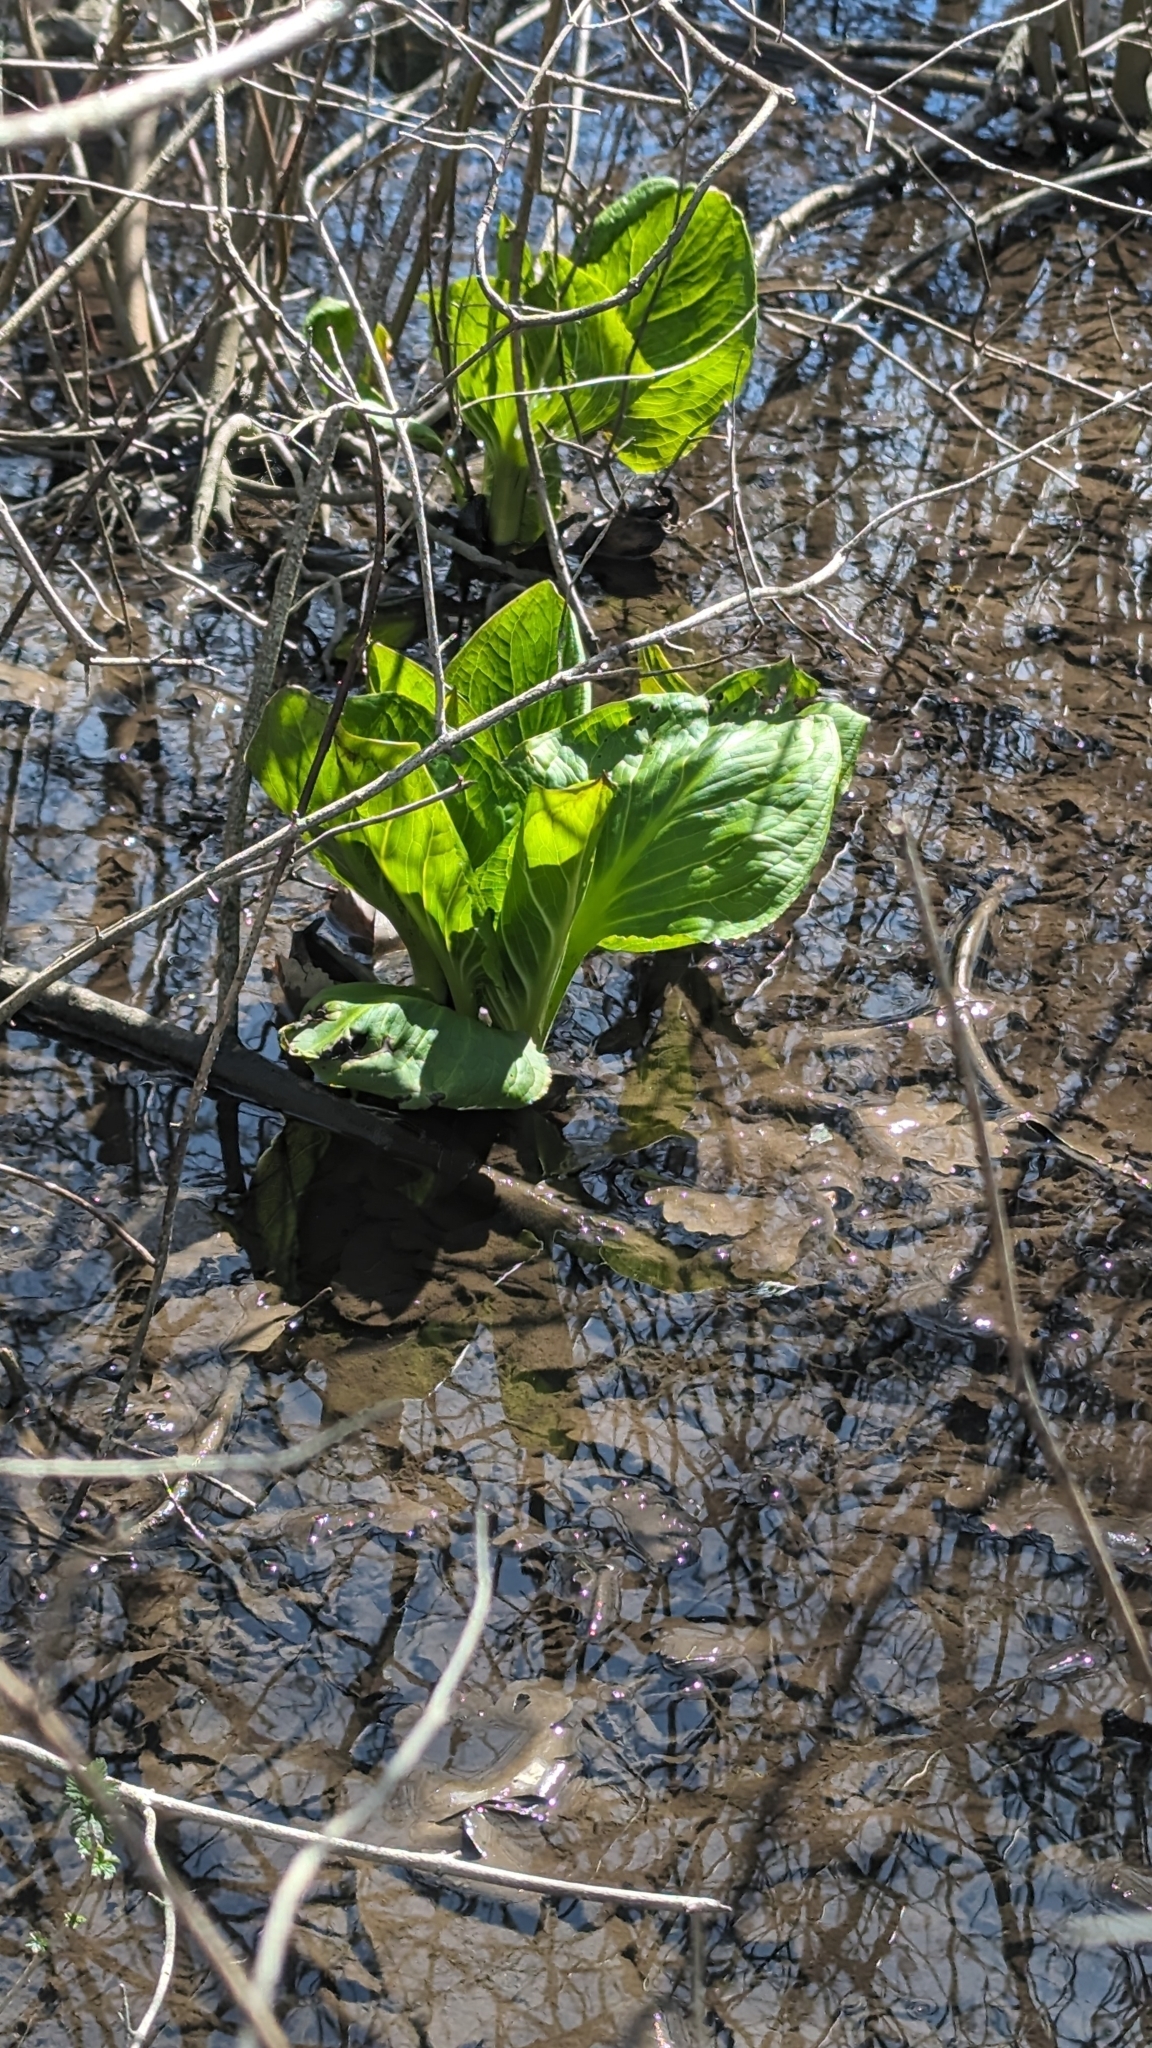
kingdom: Plantae
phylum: Tracheophyta
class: Liliopsida
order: Alismatales
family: Araceae
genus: Symplocarpus
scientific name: Symplocarpus foetidus
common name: Eastern skunk cabbage
